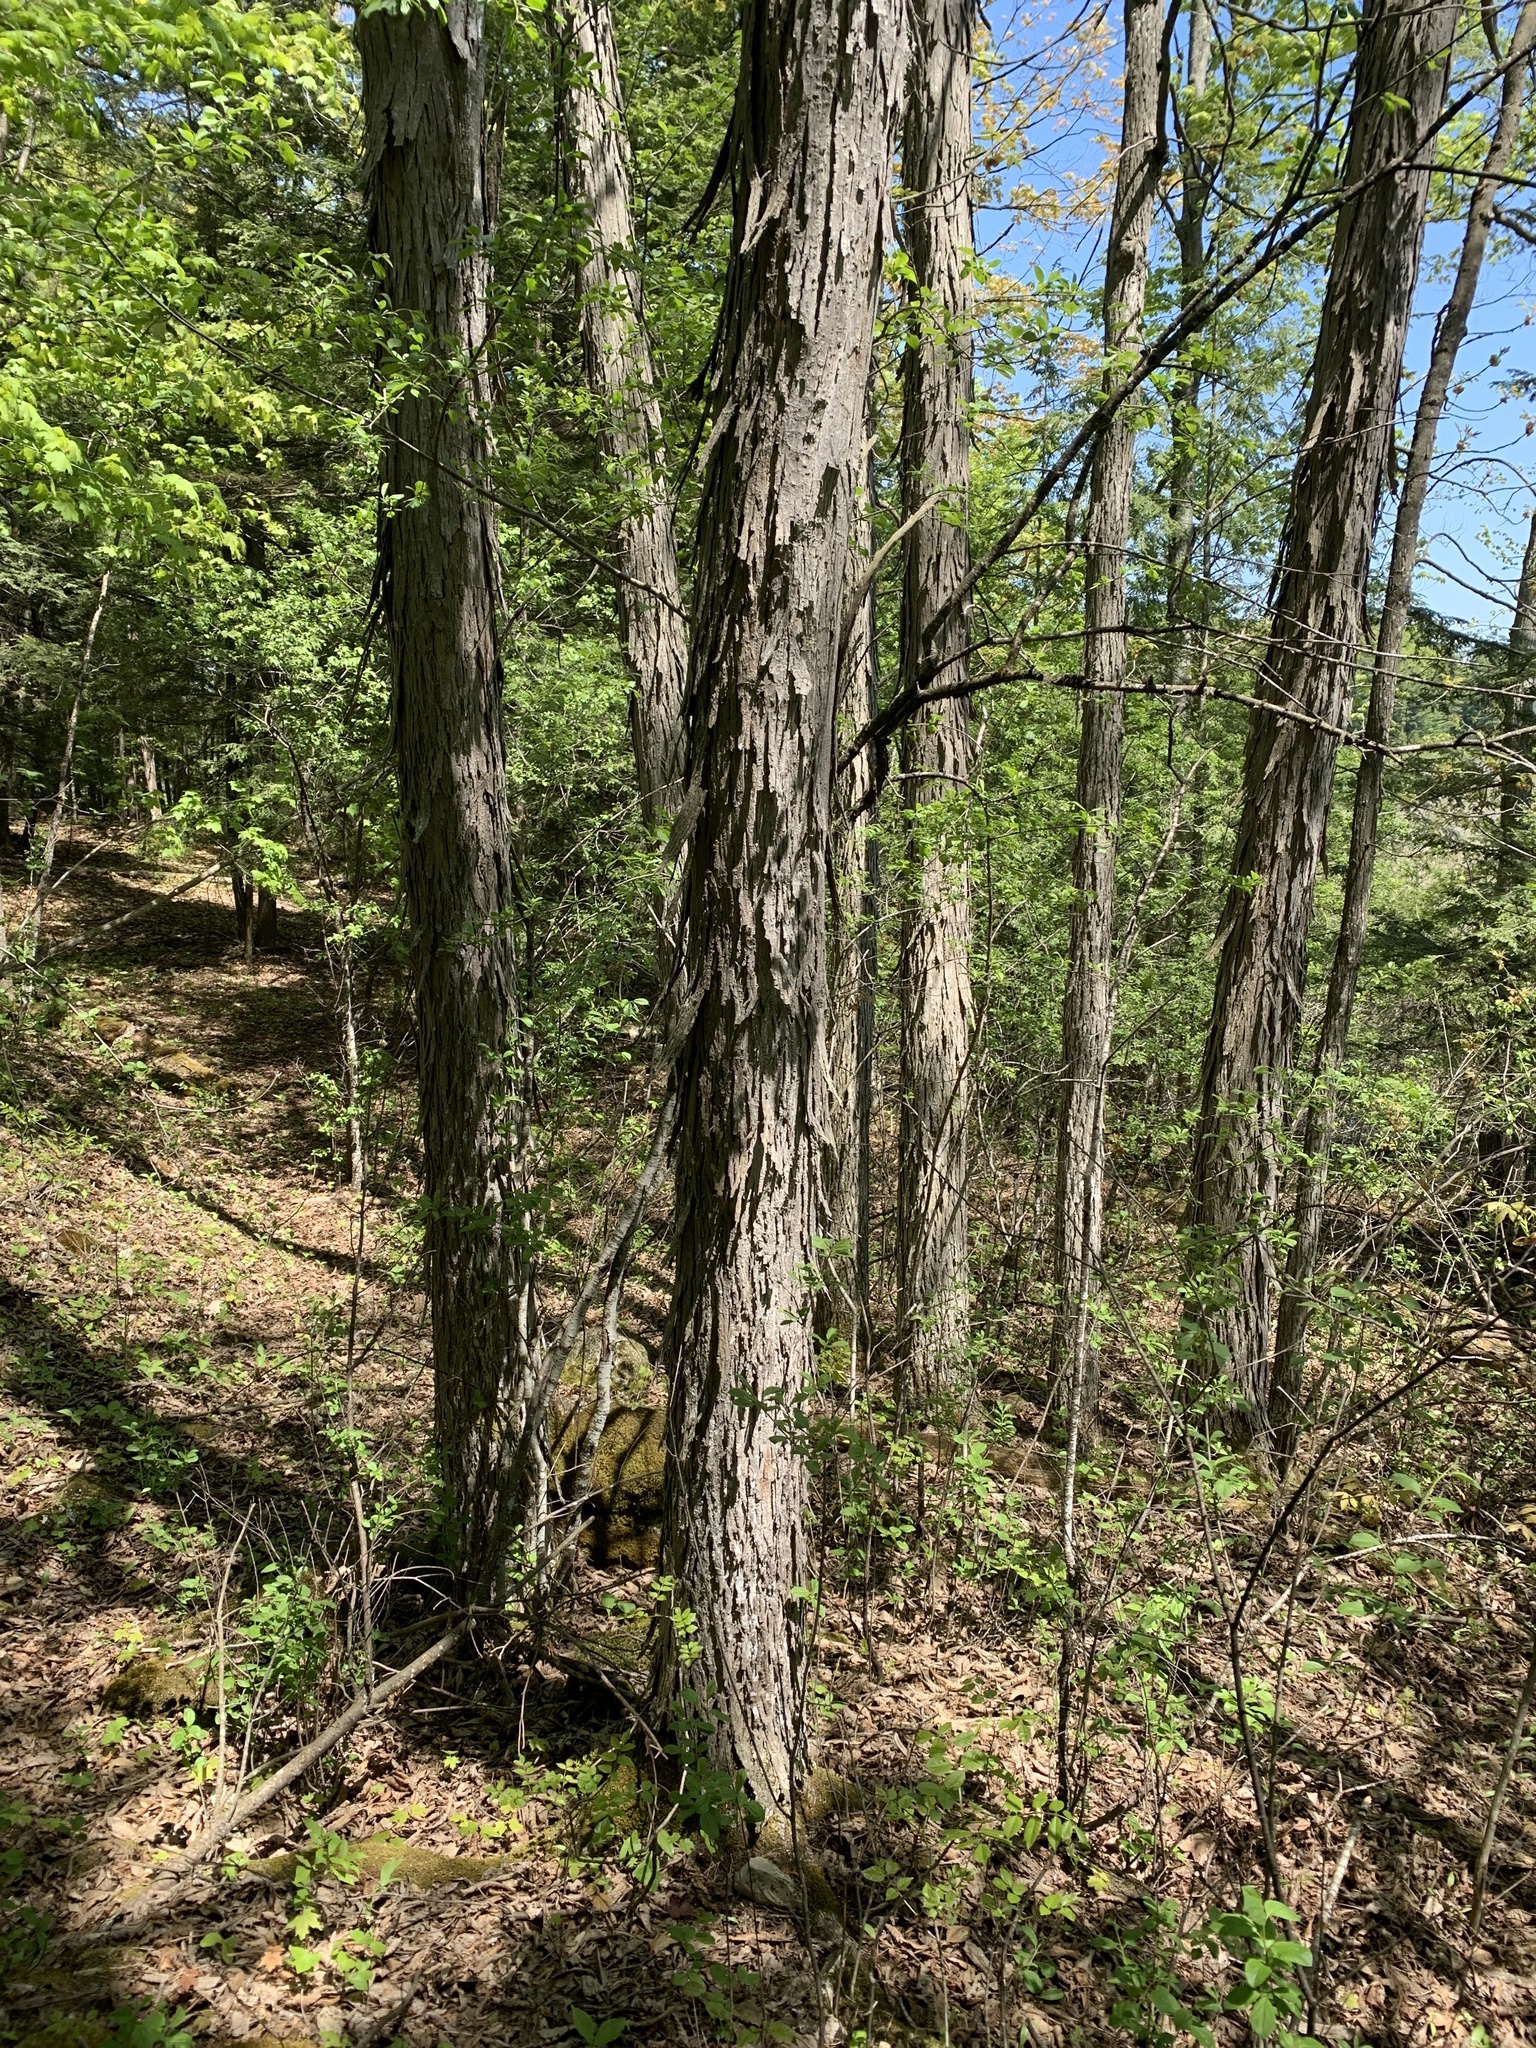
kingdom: Plantae
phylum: Tracheophyta
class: Magnoliopsida
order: Fagales
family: Juglandaceae
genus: Carya
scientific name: Carya ovata
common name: Shagbark hickory
